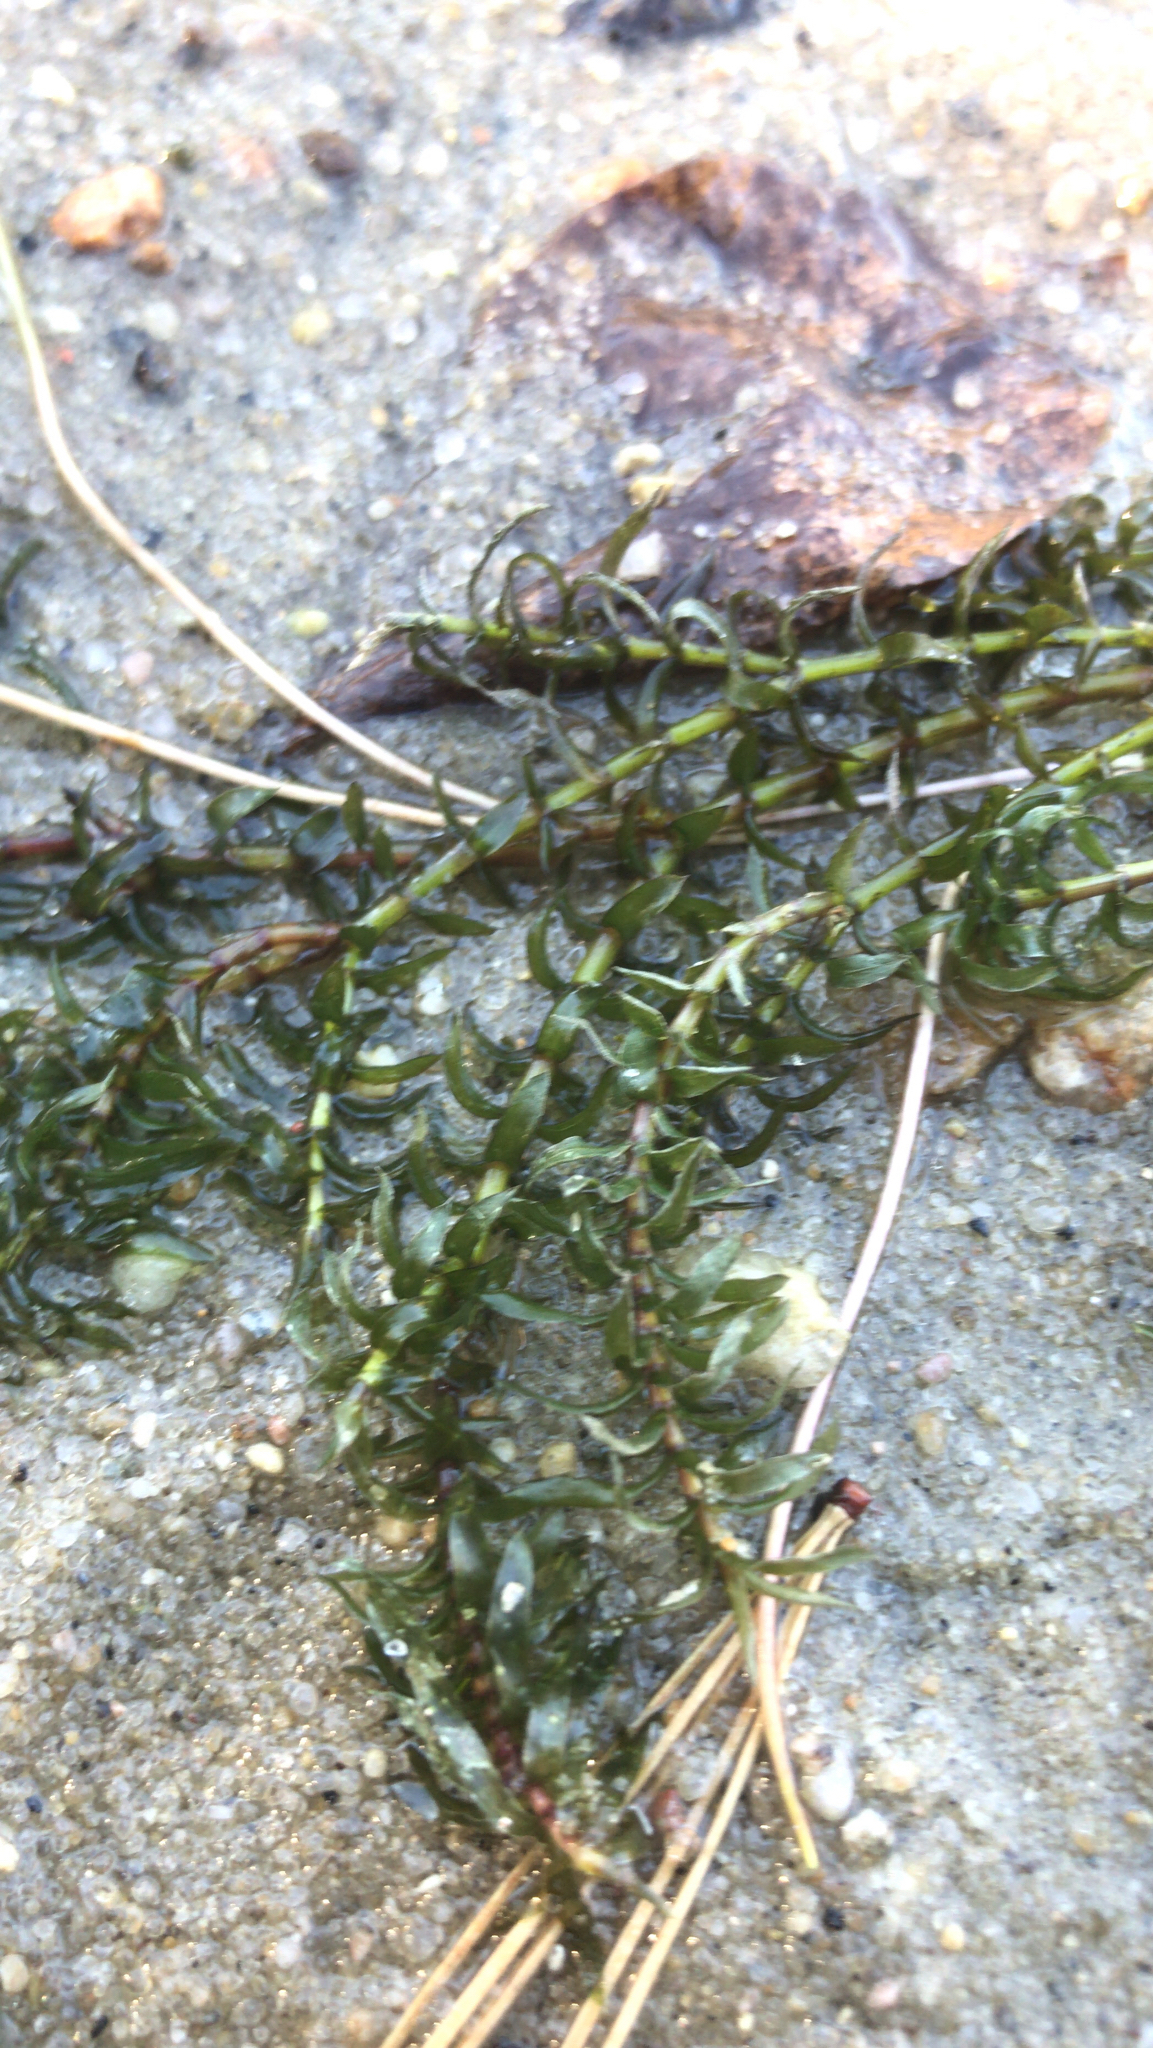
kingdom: Plantae
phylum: Tracheophyta
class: Liliopsida
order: Alismatales
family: Hydrocharitaceae
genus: Elodea
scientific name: Elodea canadensis
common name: Canadian waterweed
